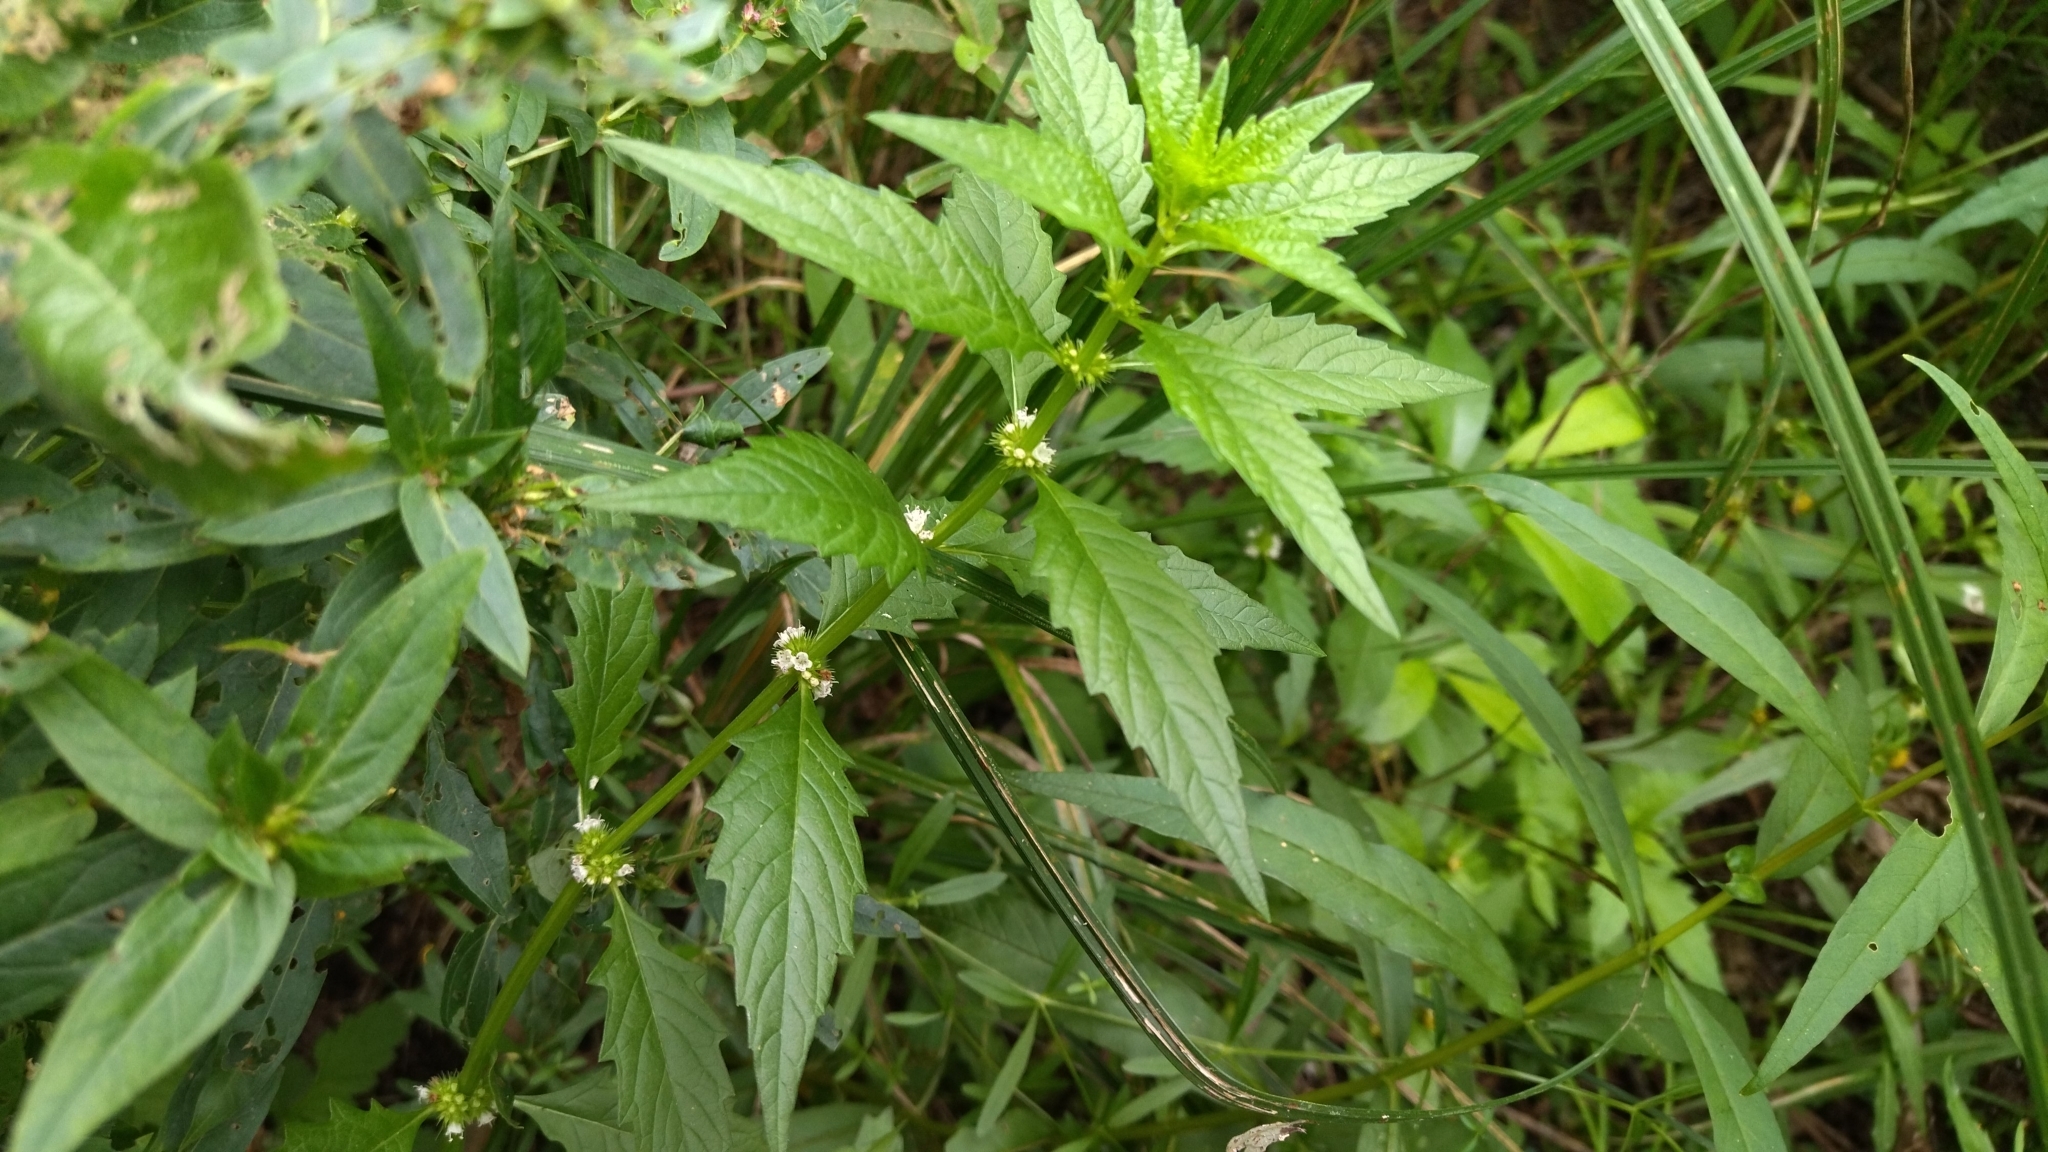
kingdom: Plantae
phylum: Tracheophyta
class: Magnoliopsida
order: Lamiales
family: Lamiaceae
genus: Lycopus
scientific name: Lycopus europaeus
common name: European bugleweed
